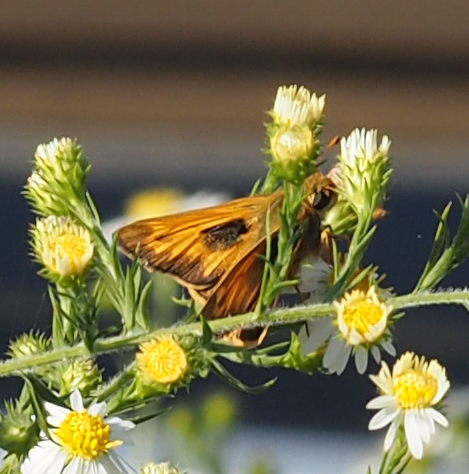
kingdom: Animalia
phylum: Arthropoda
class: Insecta
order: Lepidoptera
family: Hesperiidae
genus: Atalopedes
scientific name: Atalopedes
